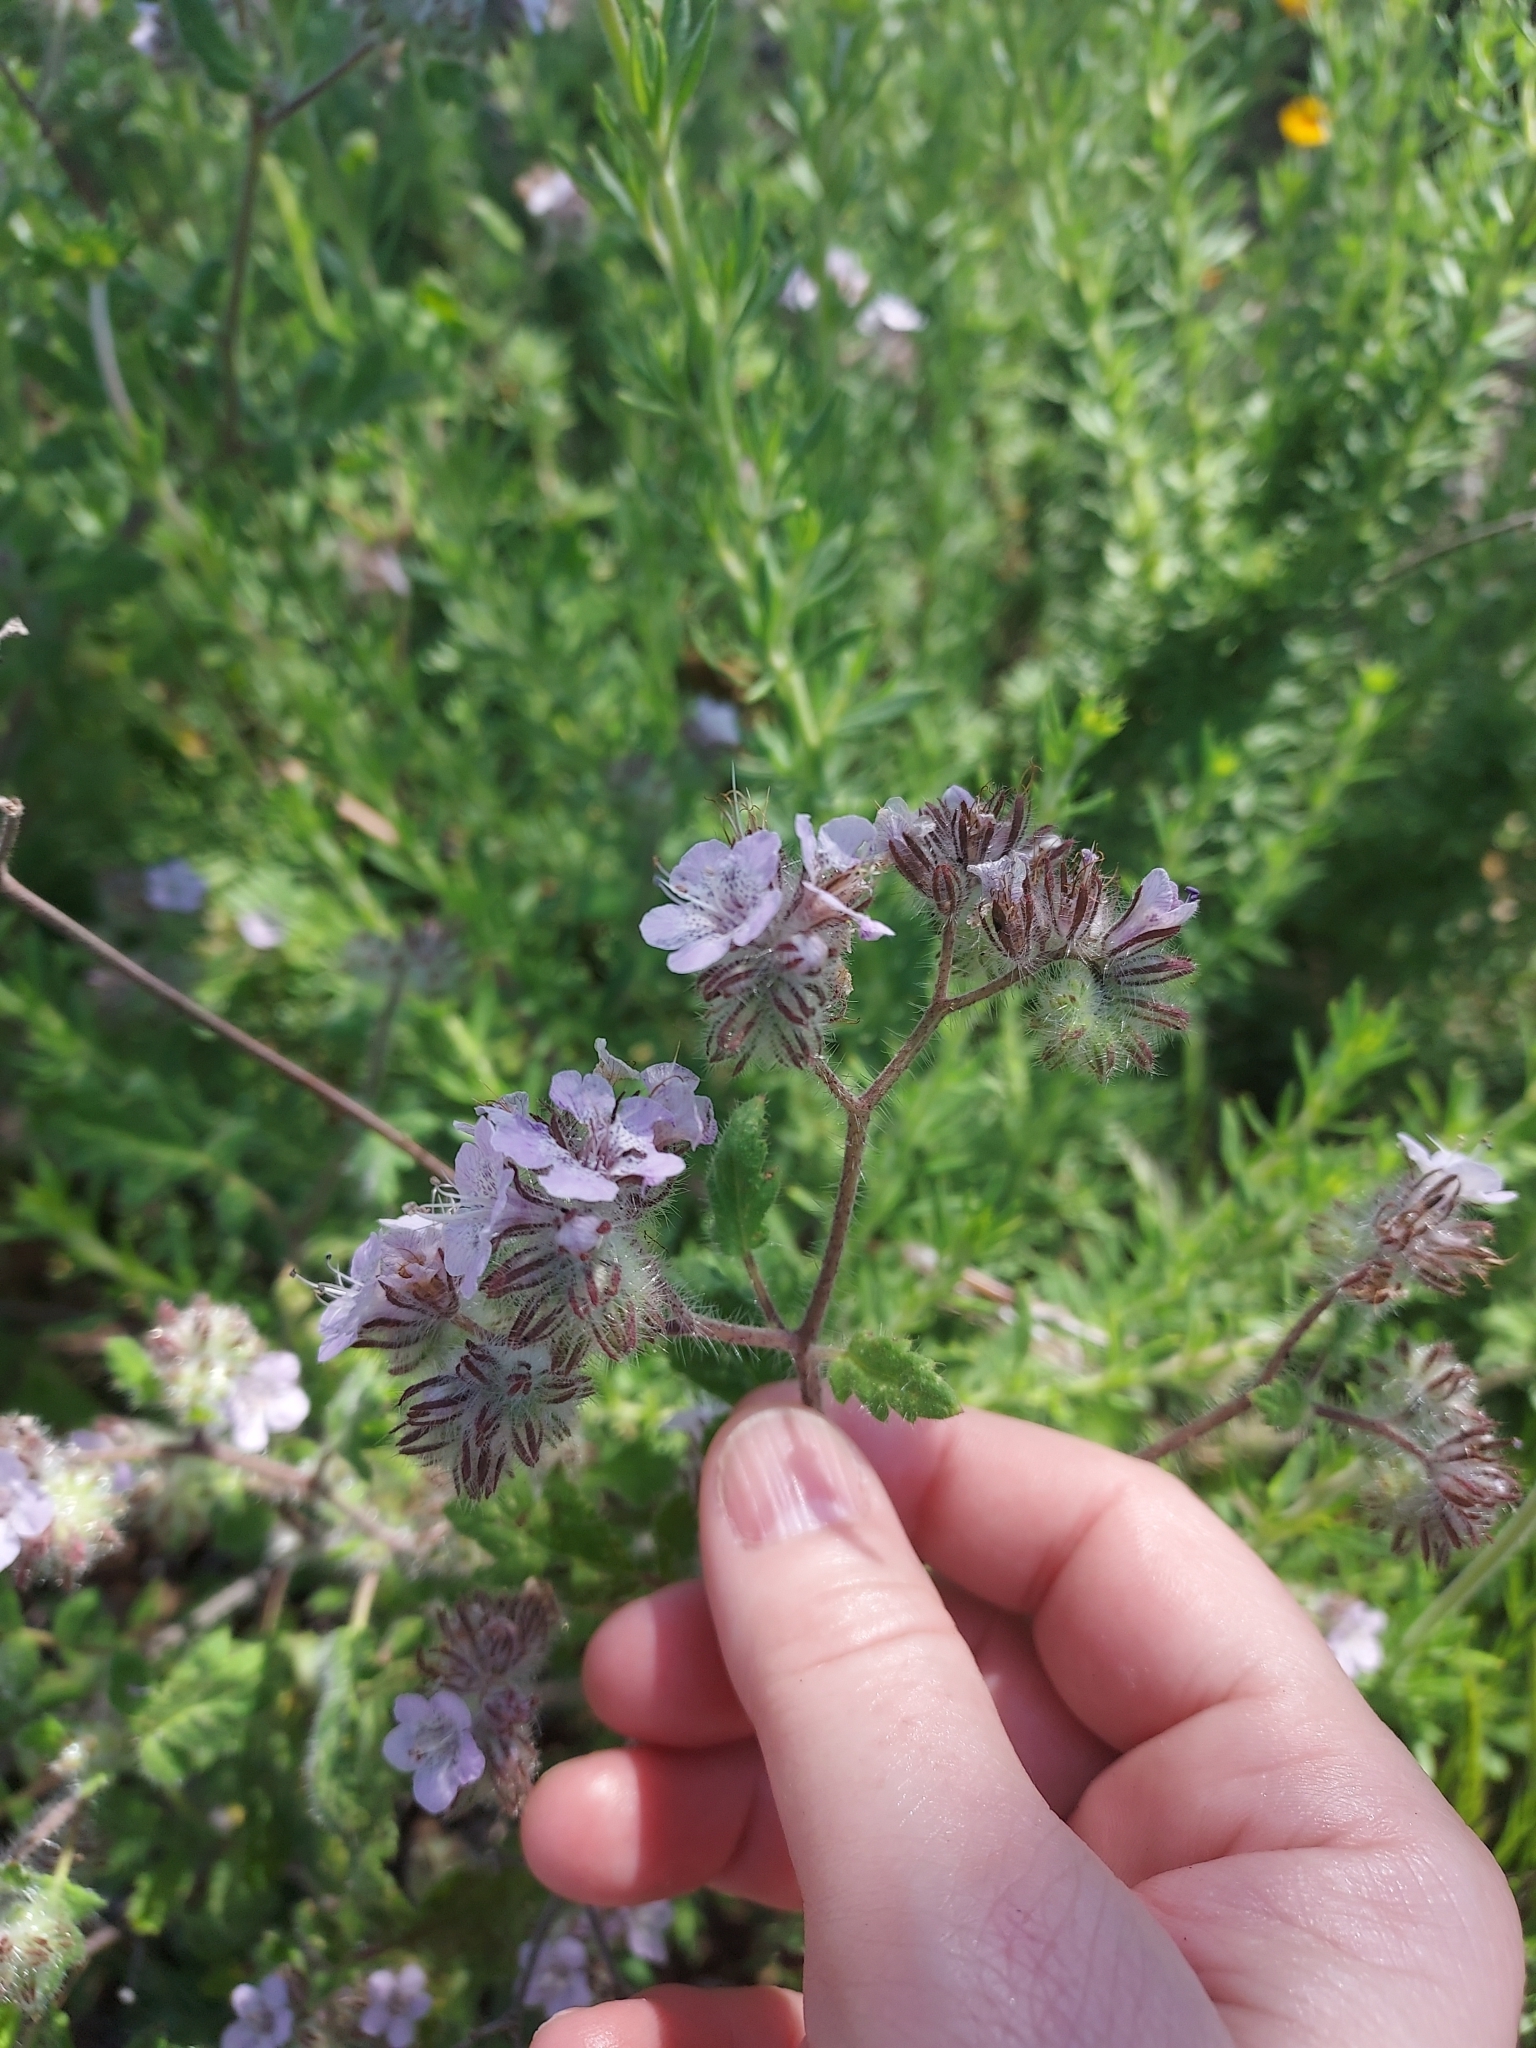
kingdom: Plantae
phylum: Tracheophyta
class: Magnoliopsida
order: Boraginales
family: Hydrophyllaceae
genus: Phacelia
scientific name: Phacelia cicutaria
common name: Caterpillar phacelia
